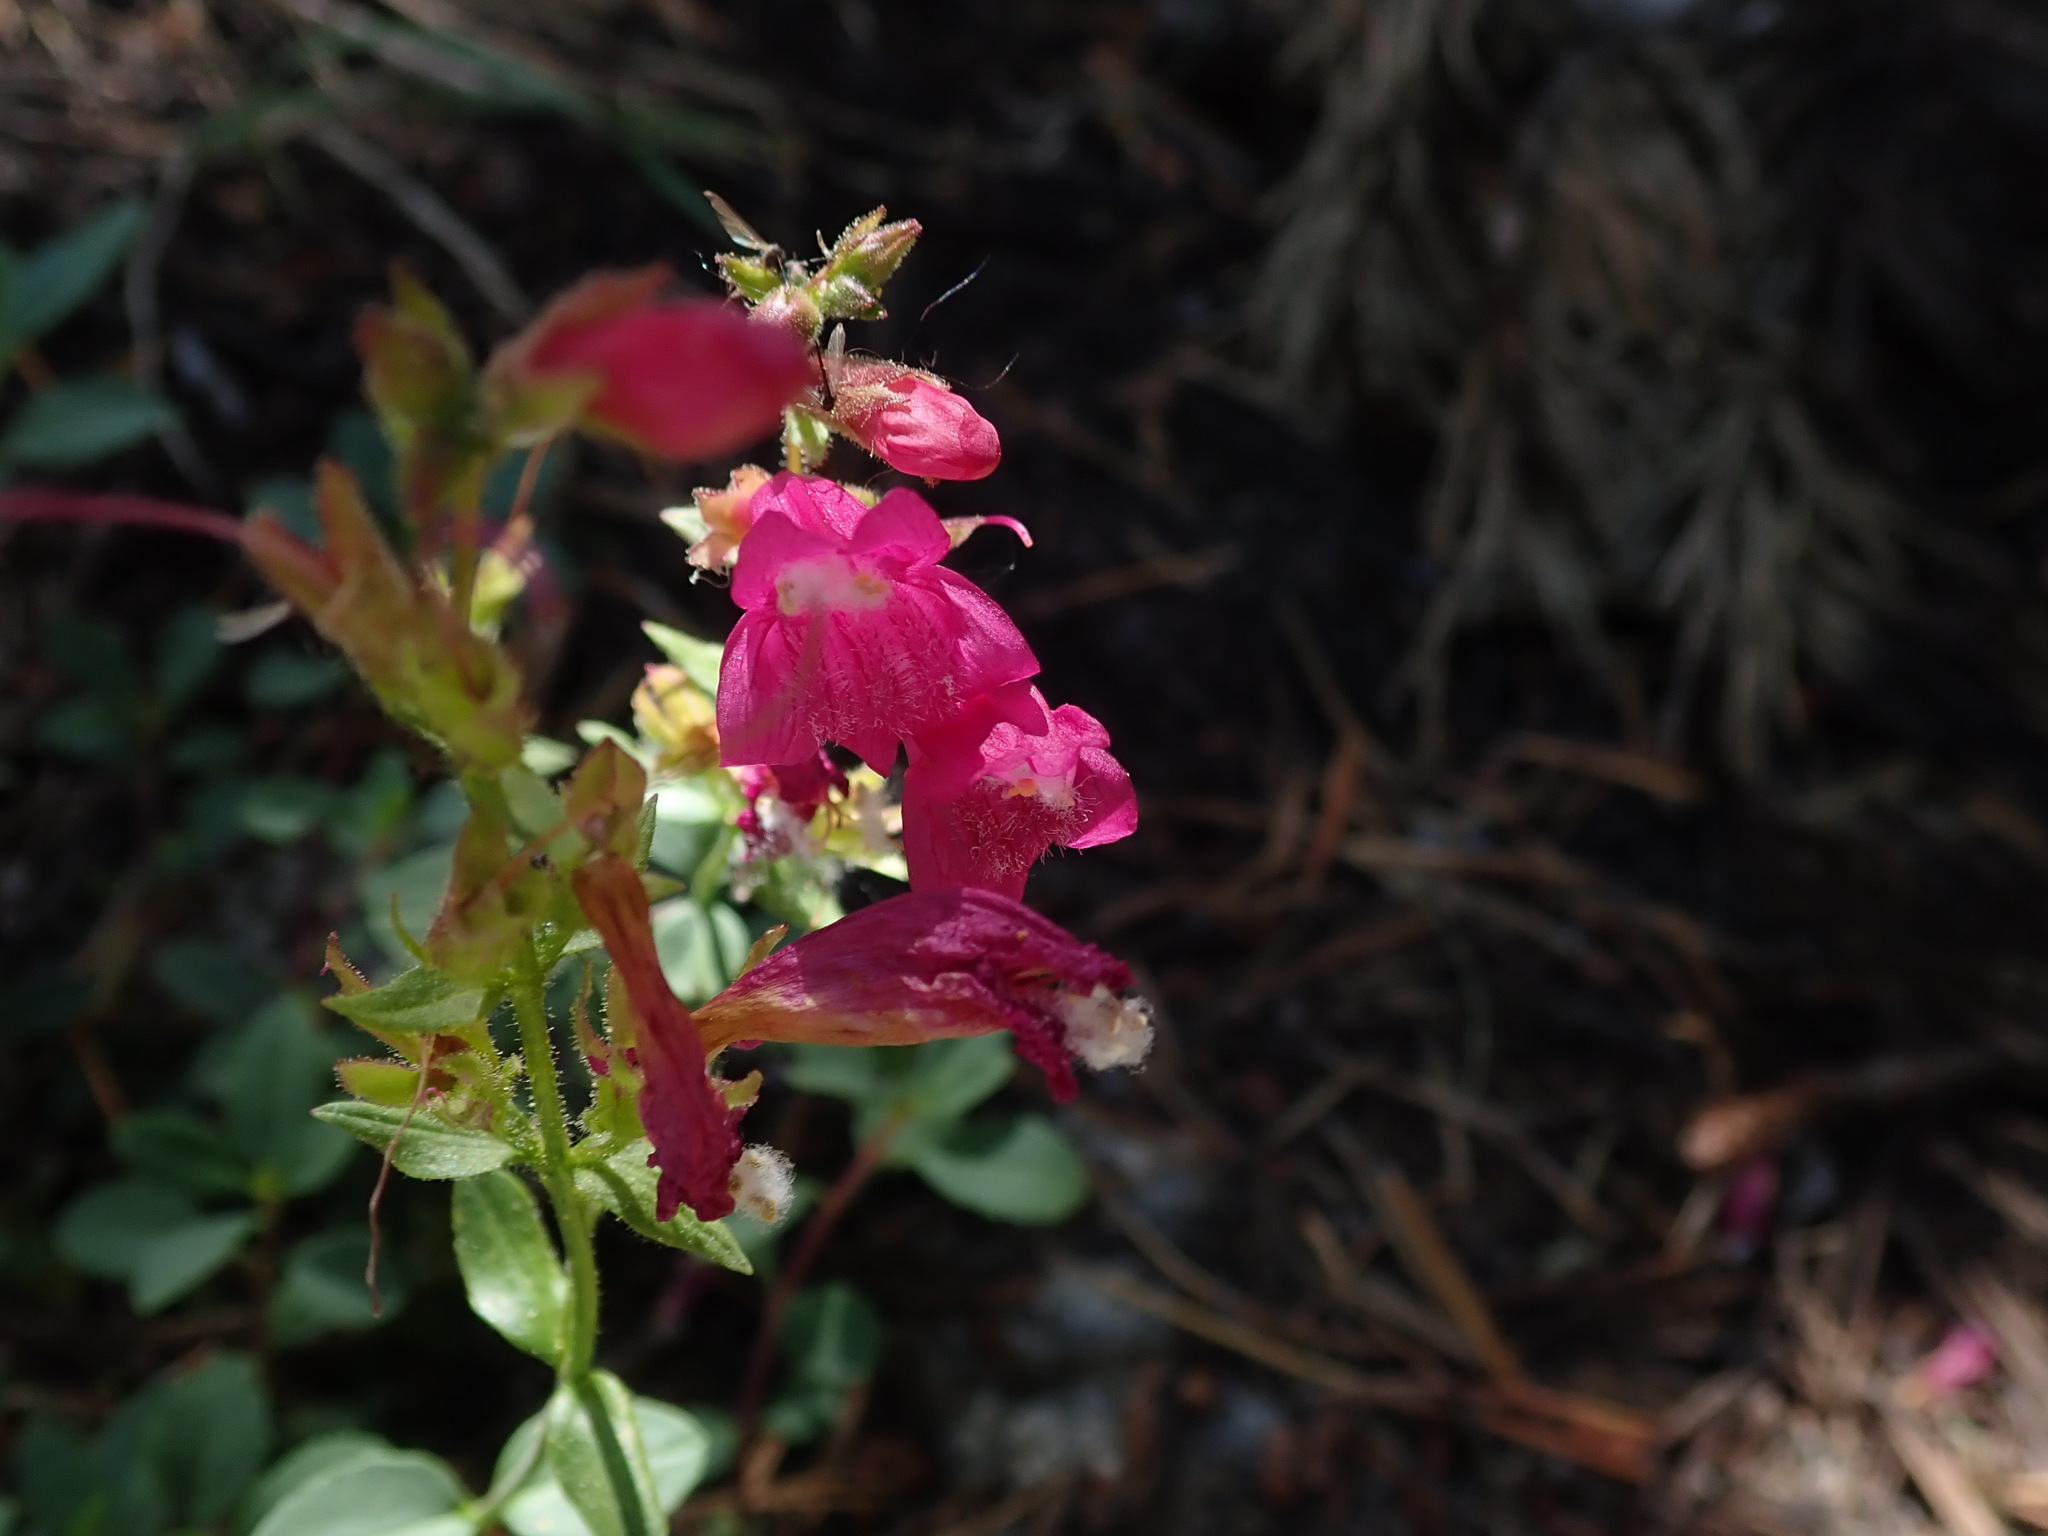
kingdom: Plantae
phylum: Tracheophyta
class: Magnoliopsida
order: Lamiales
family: Plantaginaceae
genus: Penstemon
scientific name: Penstemon newberryi
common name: Mountain-pride
